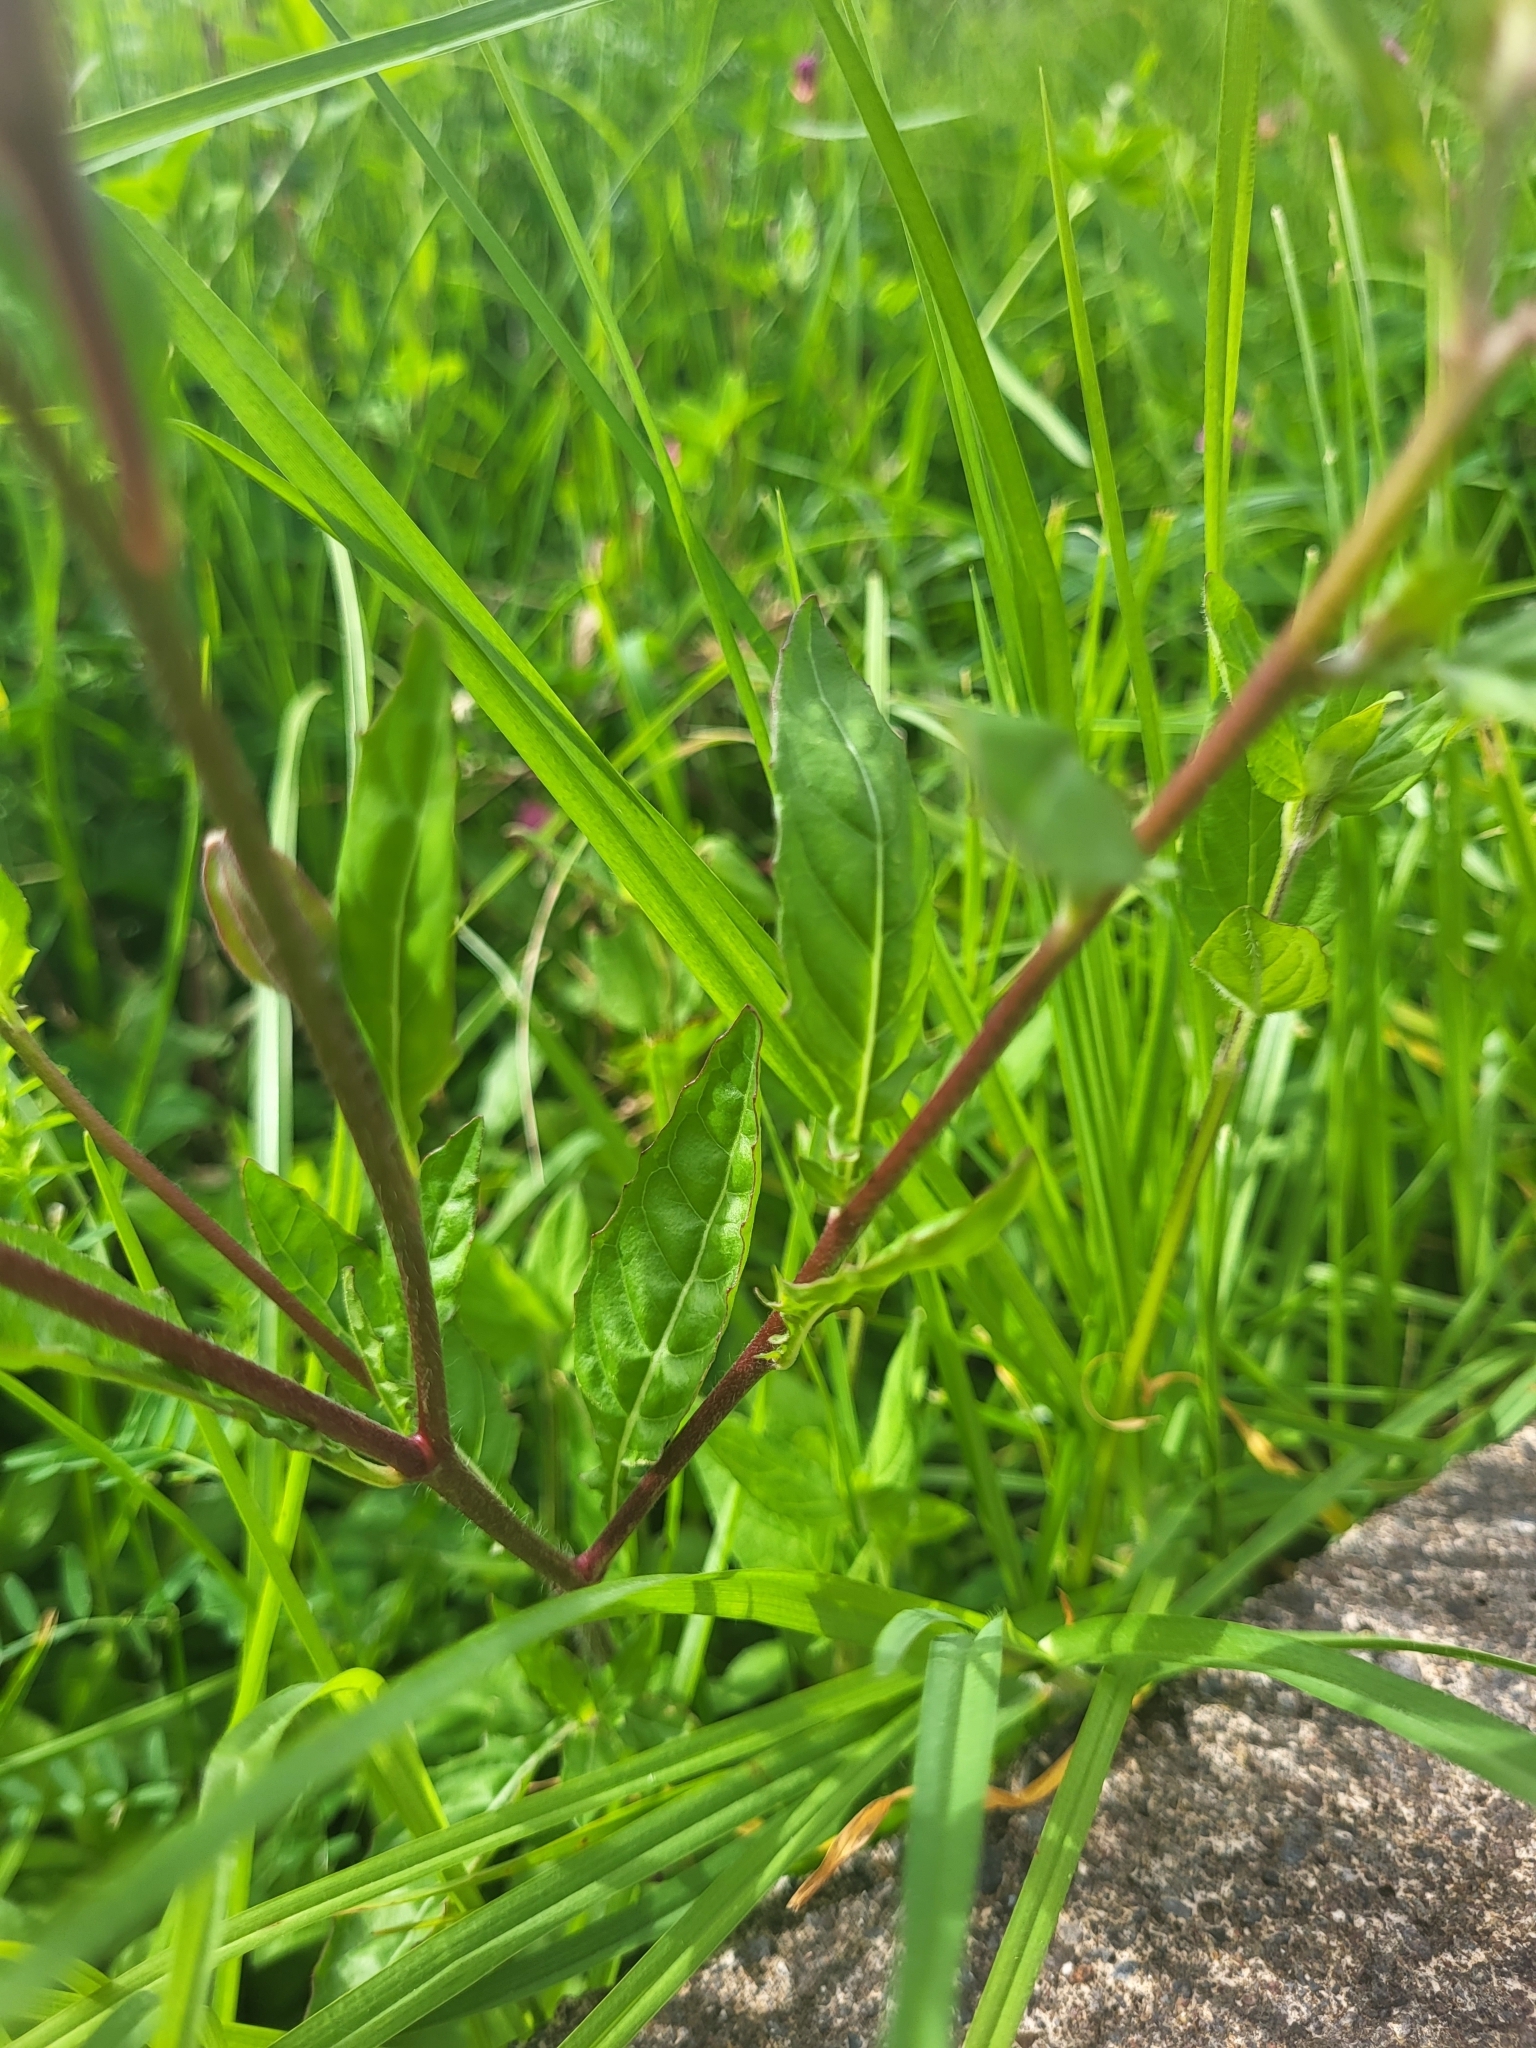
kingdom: Plantae
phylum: Tracheophyta
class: Magnoliopsida
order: Myrtales
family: Onagraceae
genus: Oenothera
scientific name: Oenothera rosea
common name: Rosy evening-primrose
